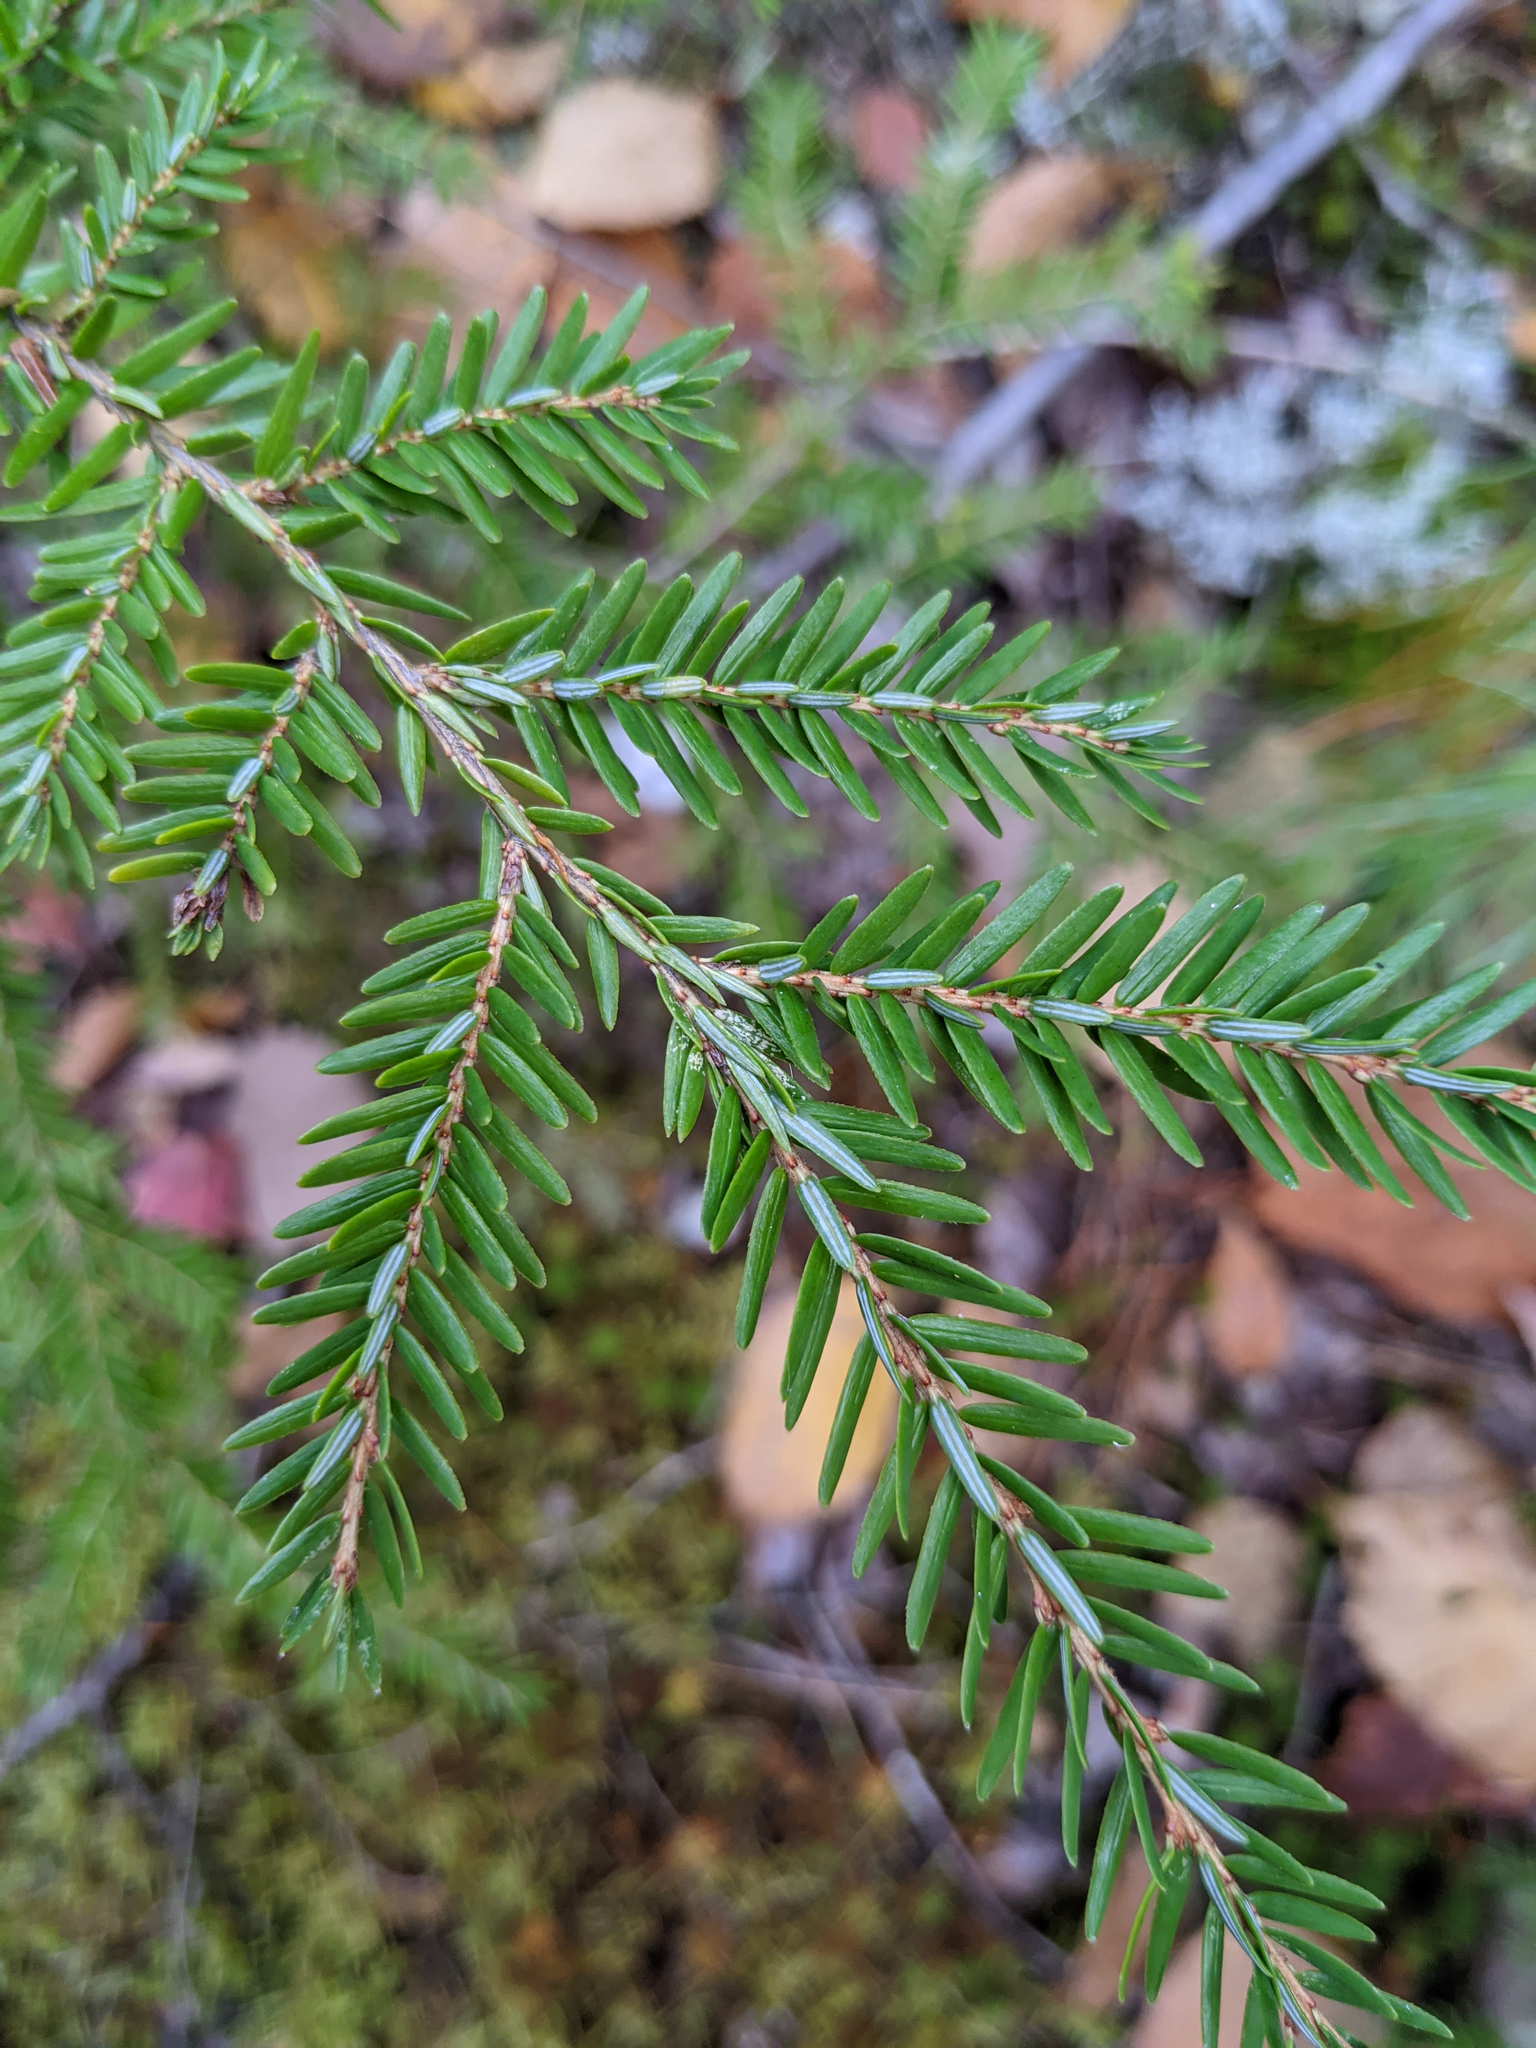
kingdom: Plantae
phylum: Tracheophyta
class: Pinopsida
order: Pinales
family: Pinaceae
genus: Tsuga
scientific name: Tsuga canadensis
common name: Eastern hemlock
